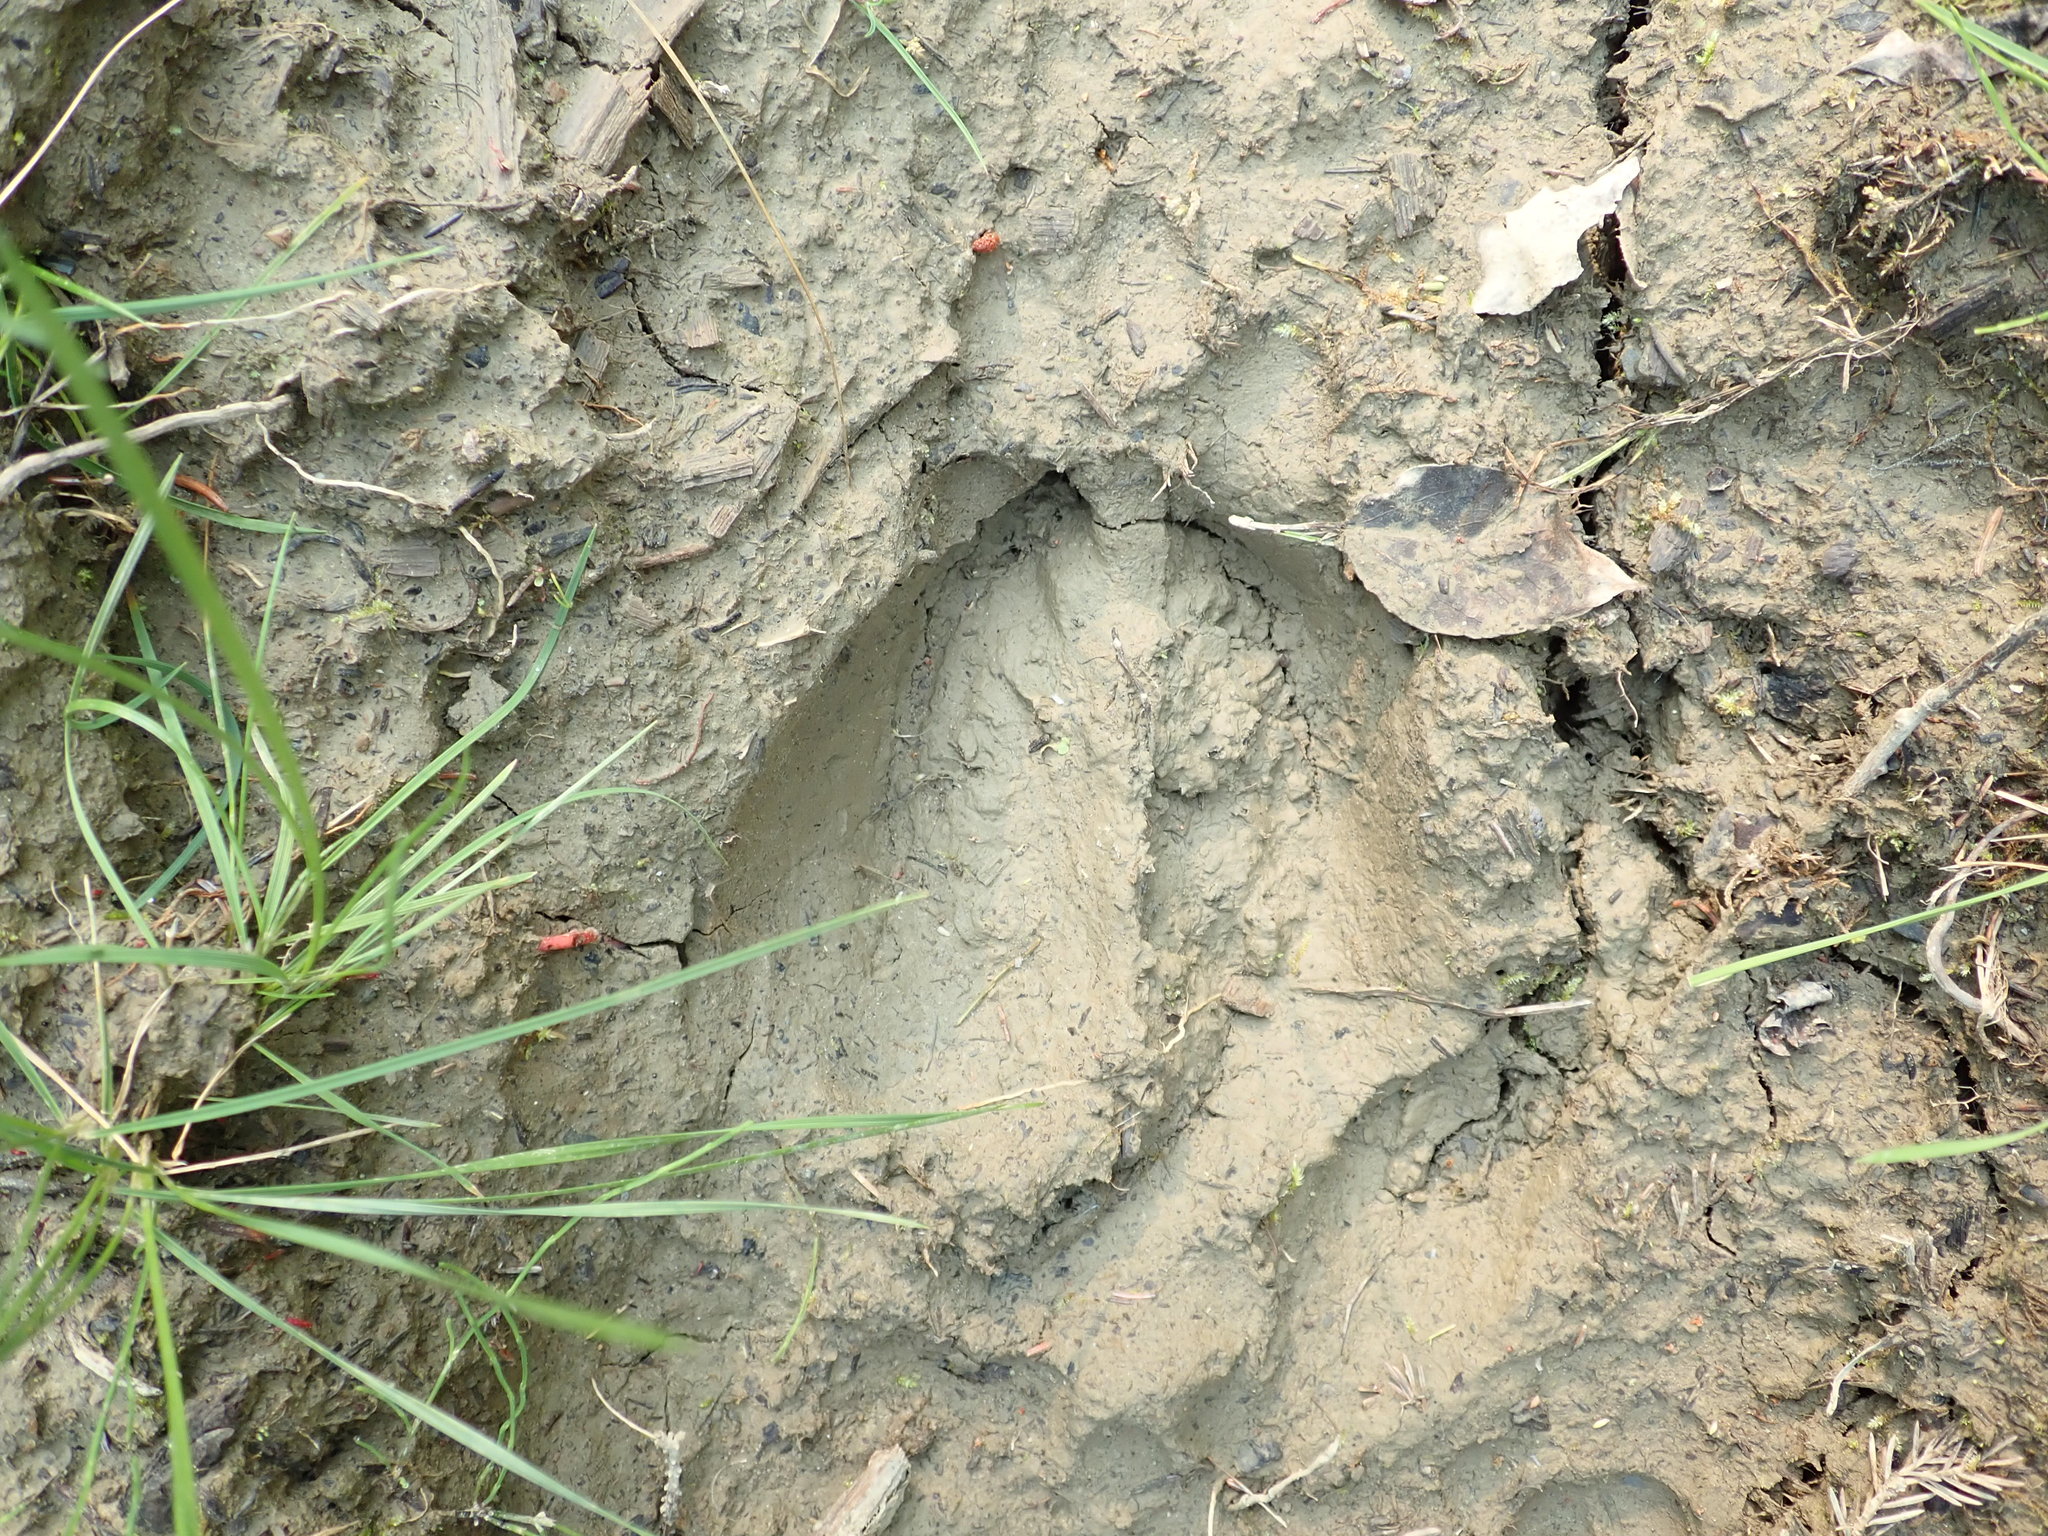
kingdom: Animalia
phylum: Chordata
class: Mammalia
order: Artiodactyla
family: Cervidae
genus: Alces
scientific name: Alces alces
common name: Moose
